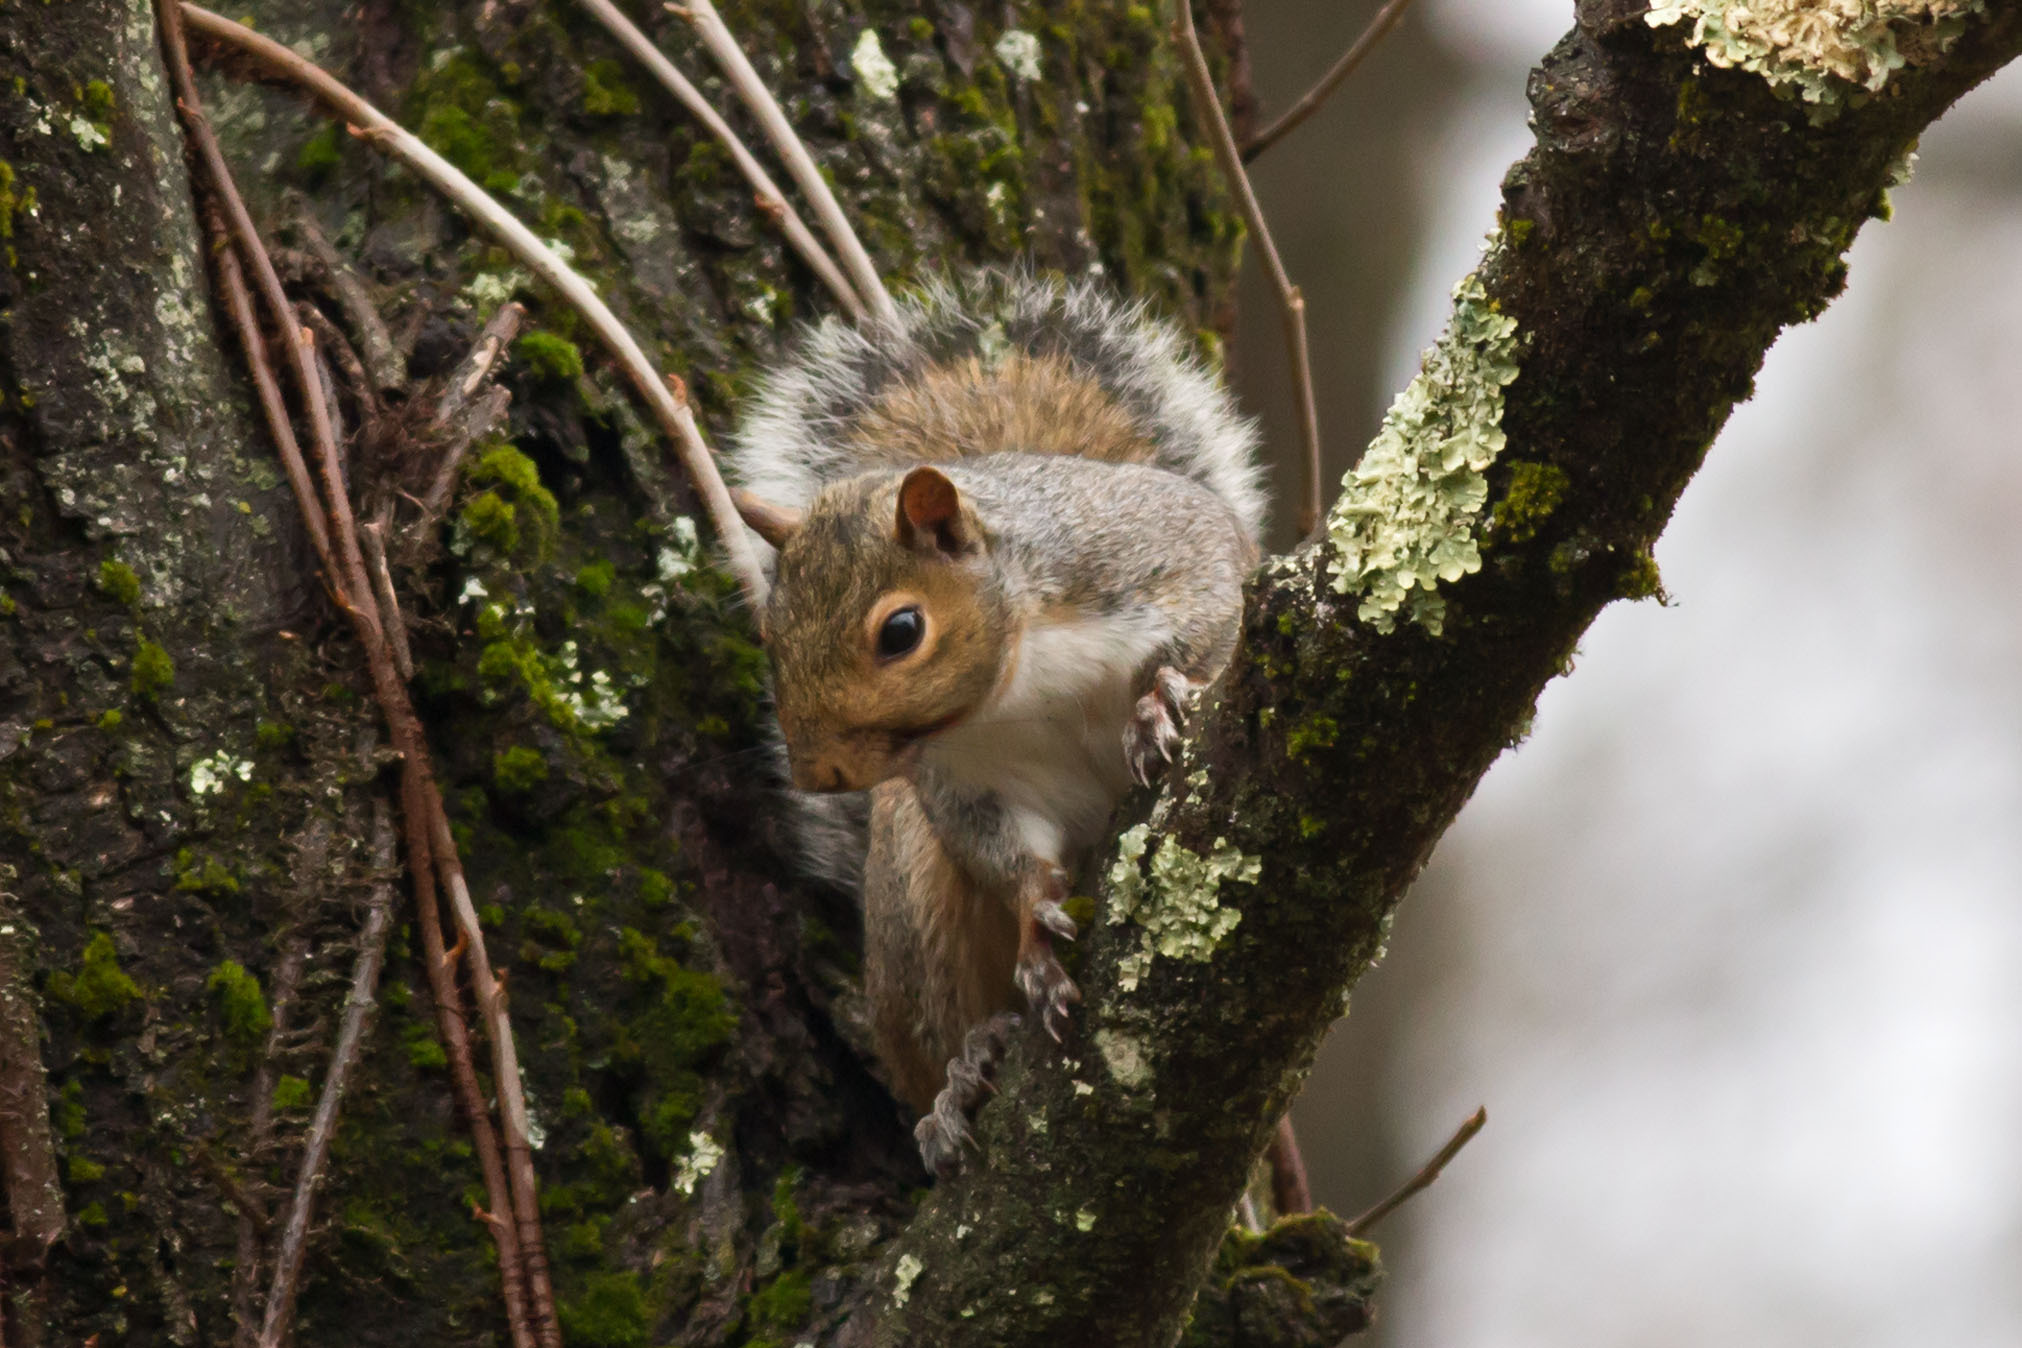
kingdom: Animalia
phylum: Chordata
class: Mammalia
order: Rodentia
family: Sciuridae
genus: Sciurus
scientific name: Sciurus carolinensis
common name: Eastern gray squirrel
